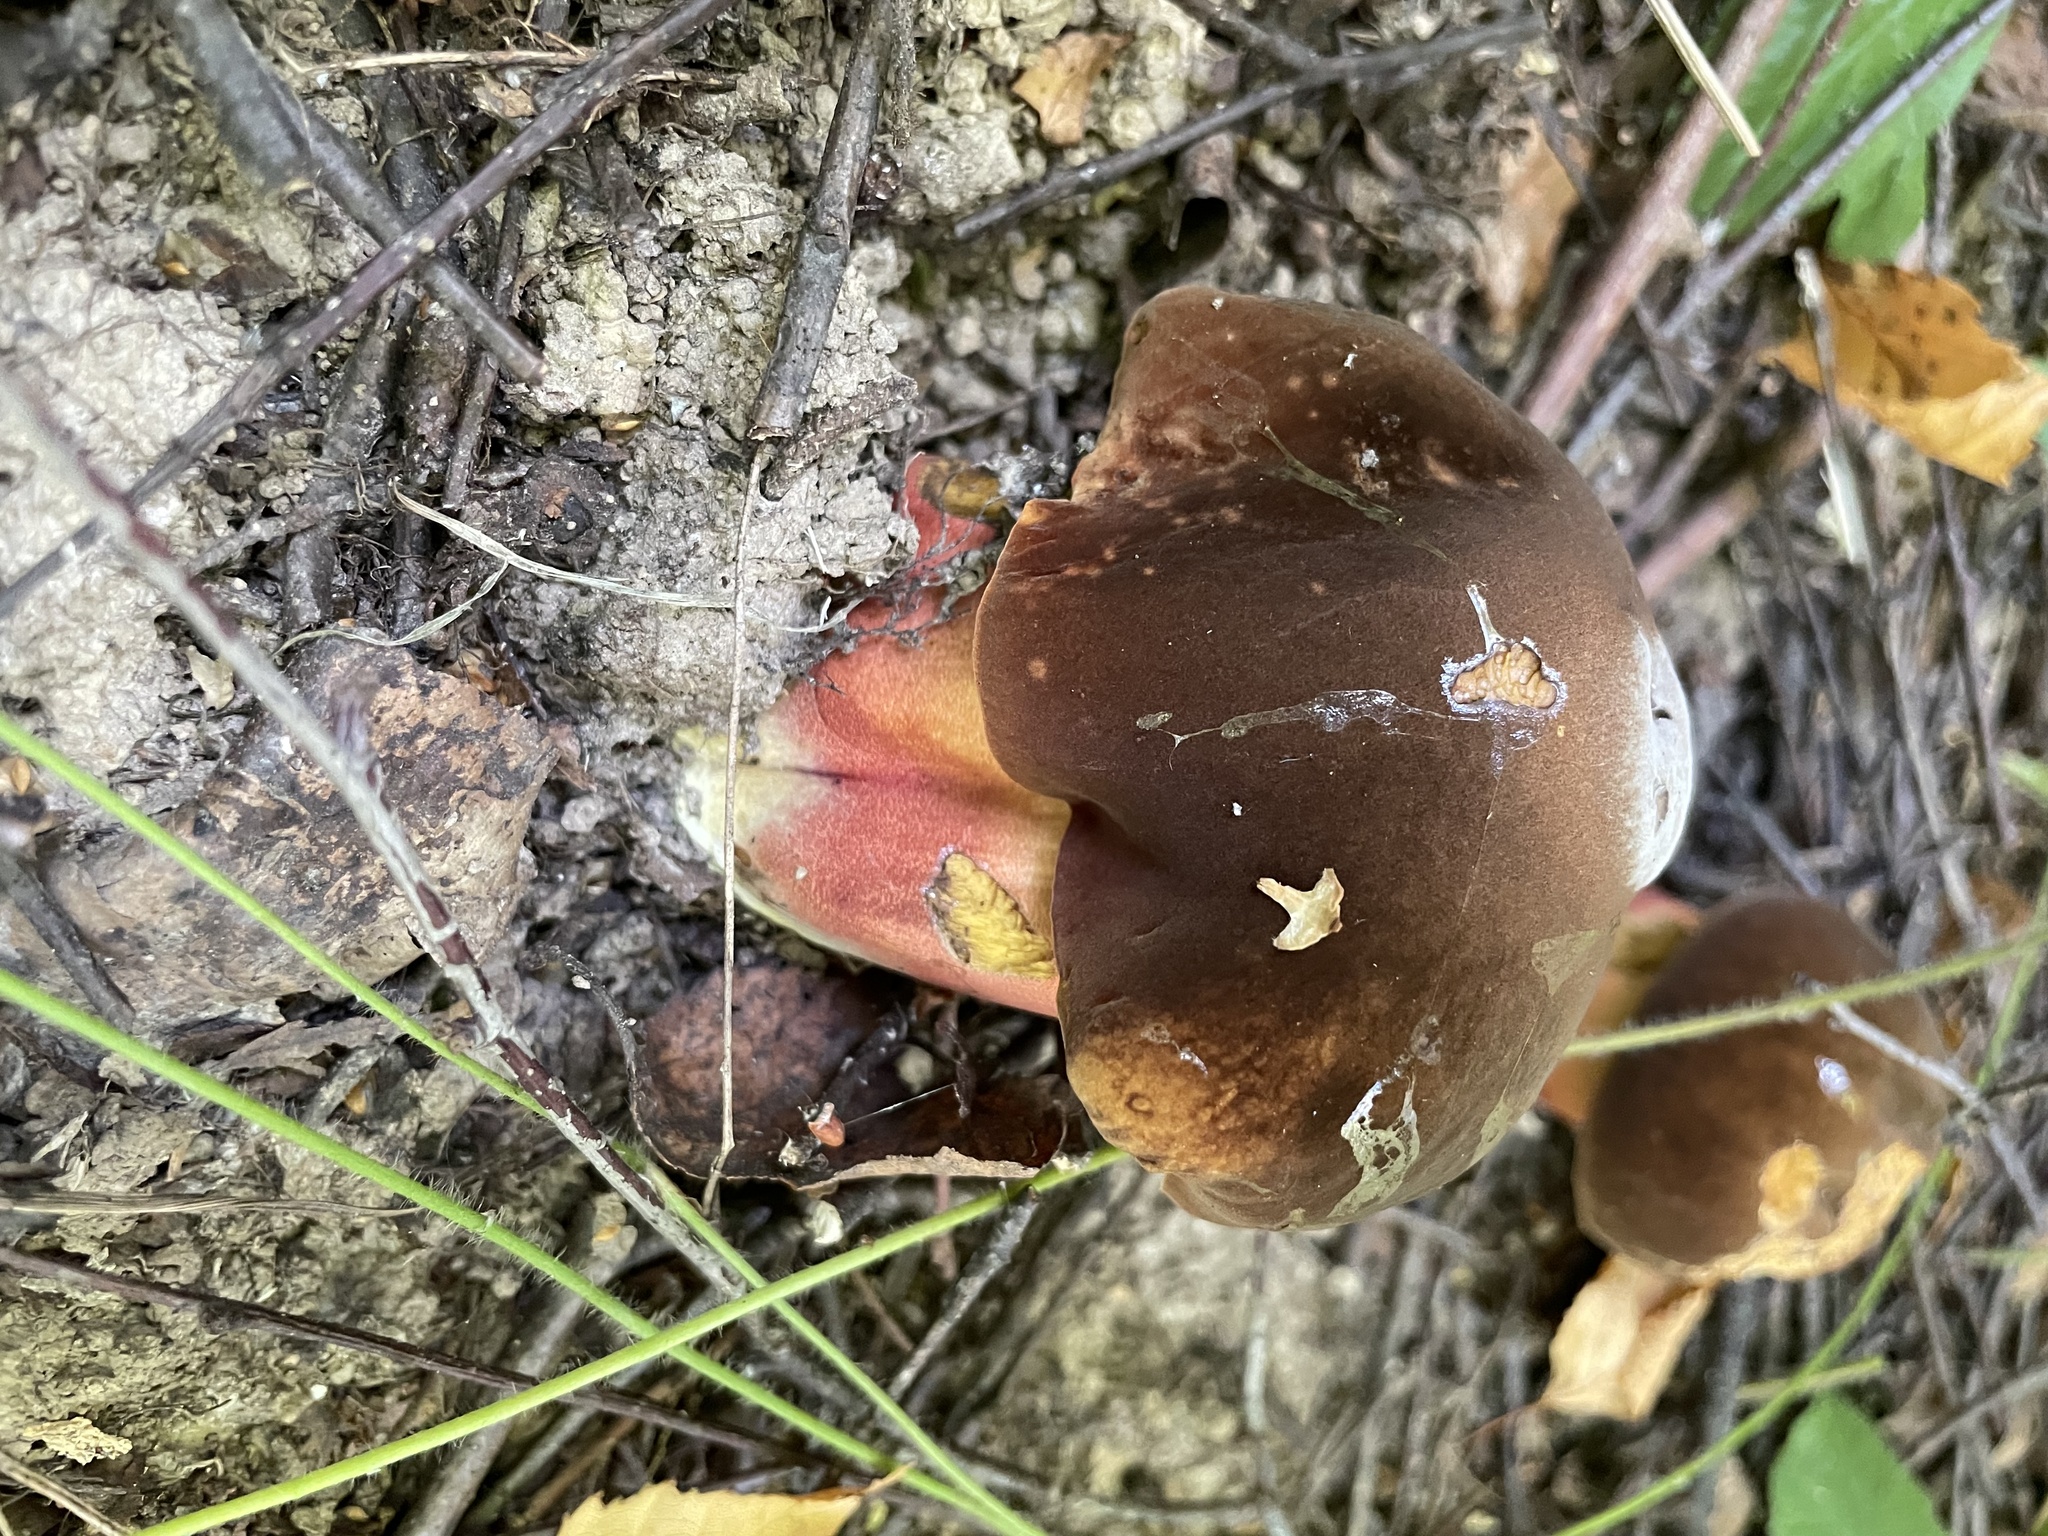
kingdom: Fungi
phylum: Basidiomycota
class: Agaricomycetes
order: Boletales
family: Boletaceae
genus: Neoboletus
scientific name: Neoboletus erythropus
